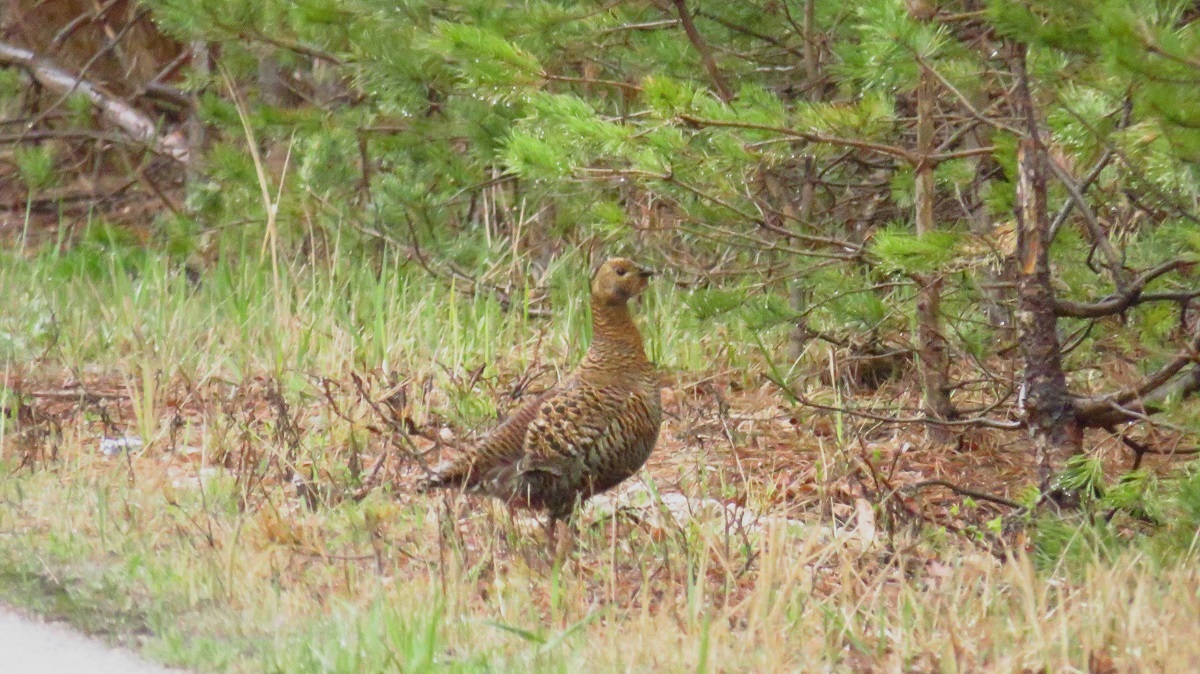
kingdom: Animalia
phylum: Chordata
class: Aves
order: Galliformes
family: Phasianidae
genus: Lyrurus
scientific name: Lyrurus tetrix
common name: Black grouse
